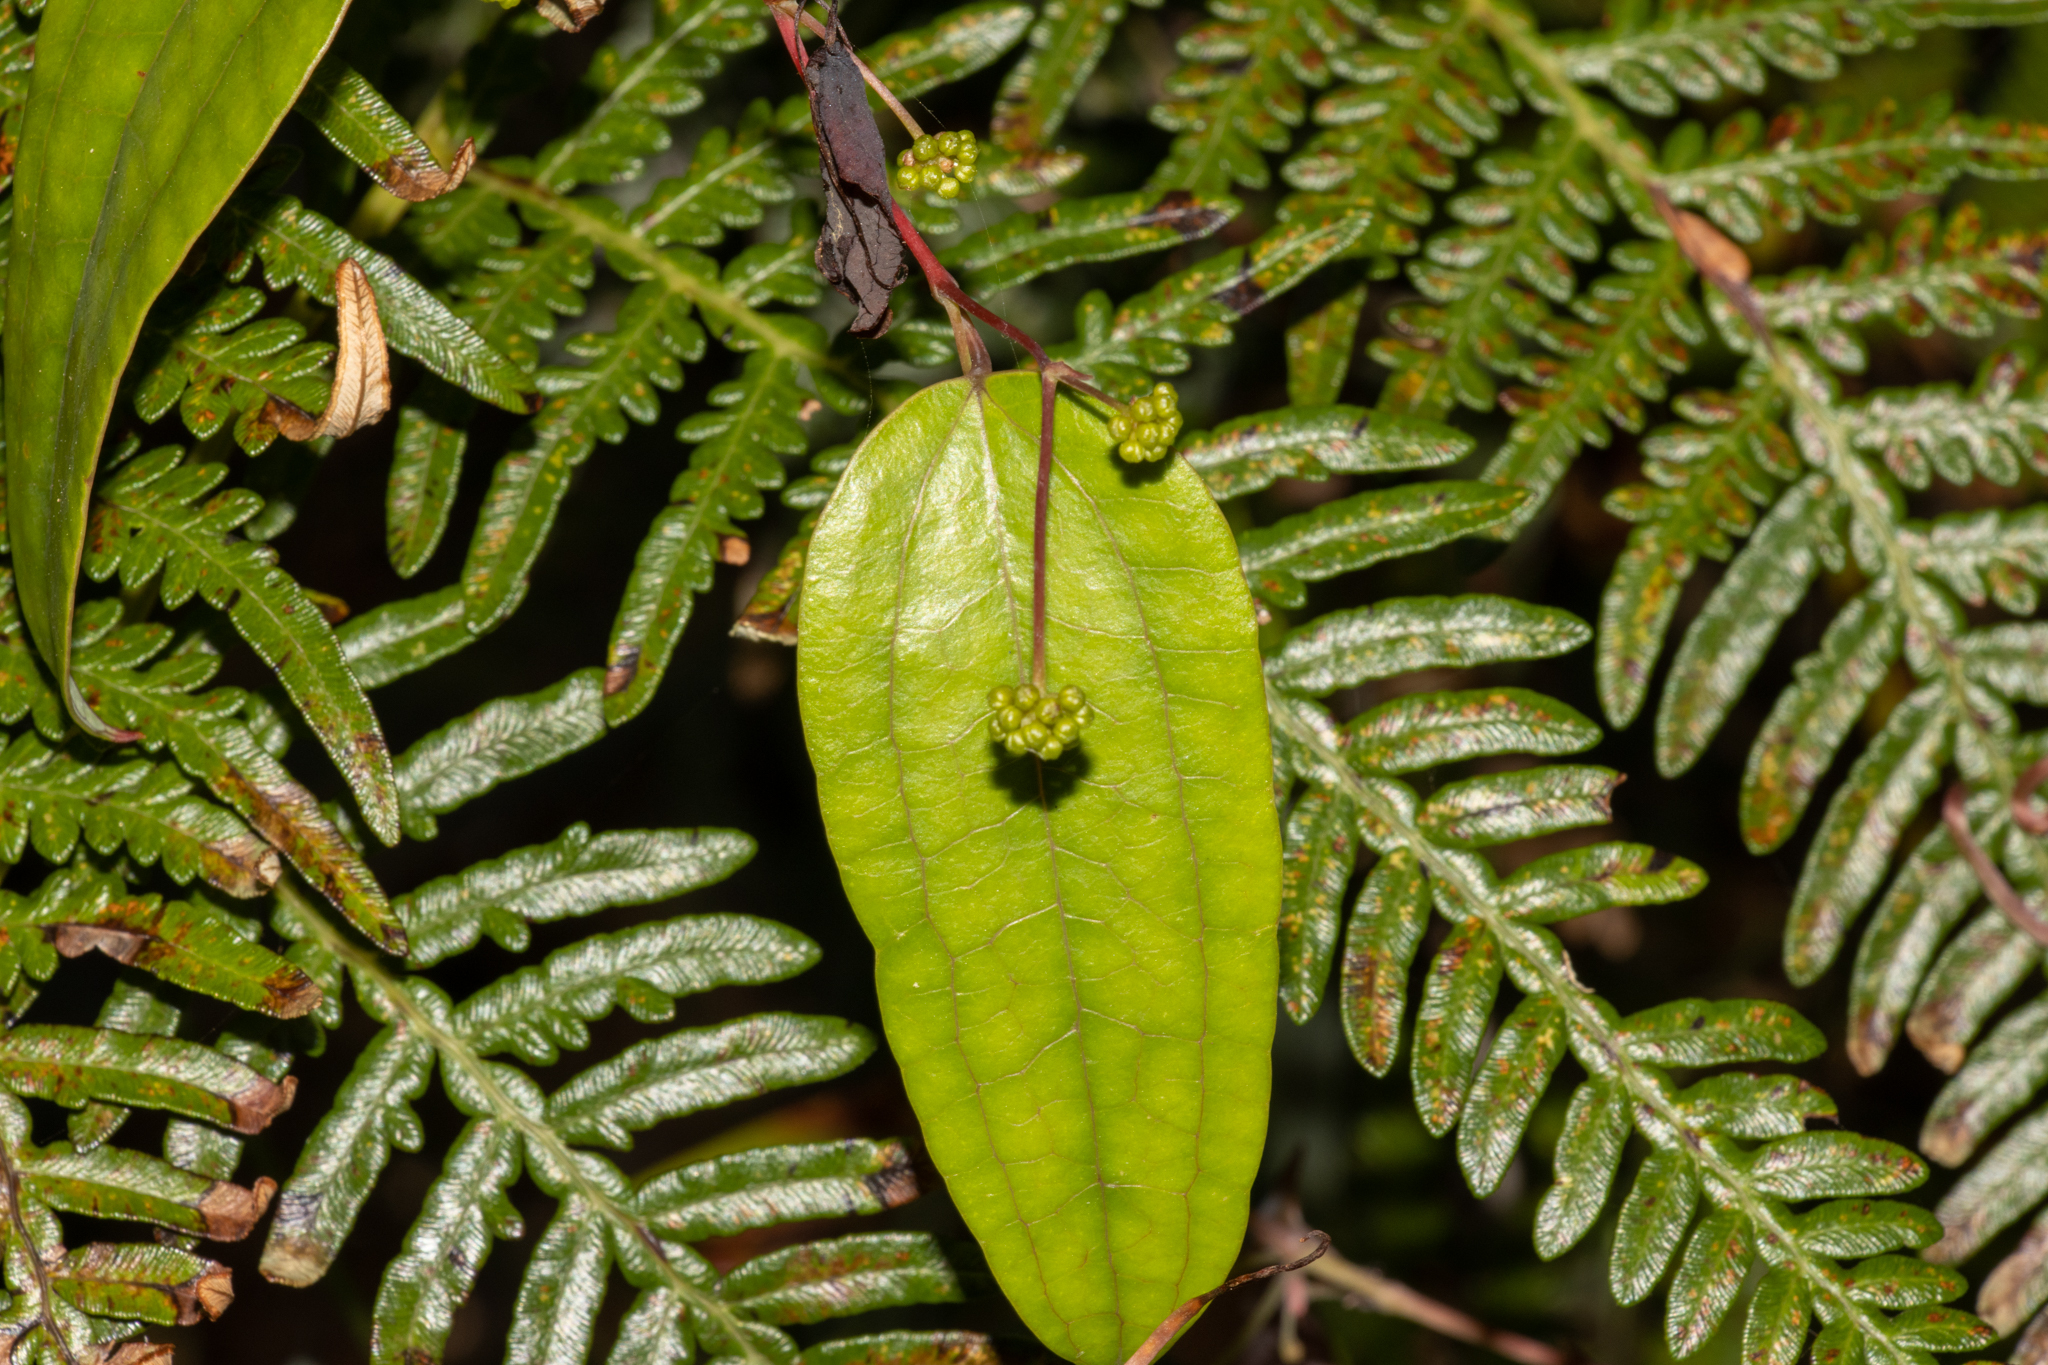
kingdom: Plantae
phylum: Tracheophyta
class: Liliopsida
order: Liliales
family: Smilacaceae
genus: Smilax
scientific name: Smilax glyciphylla
